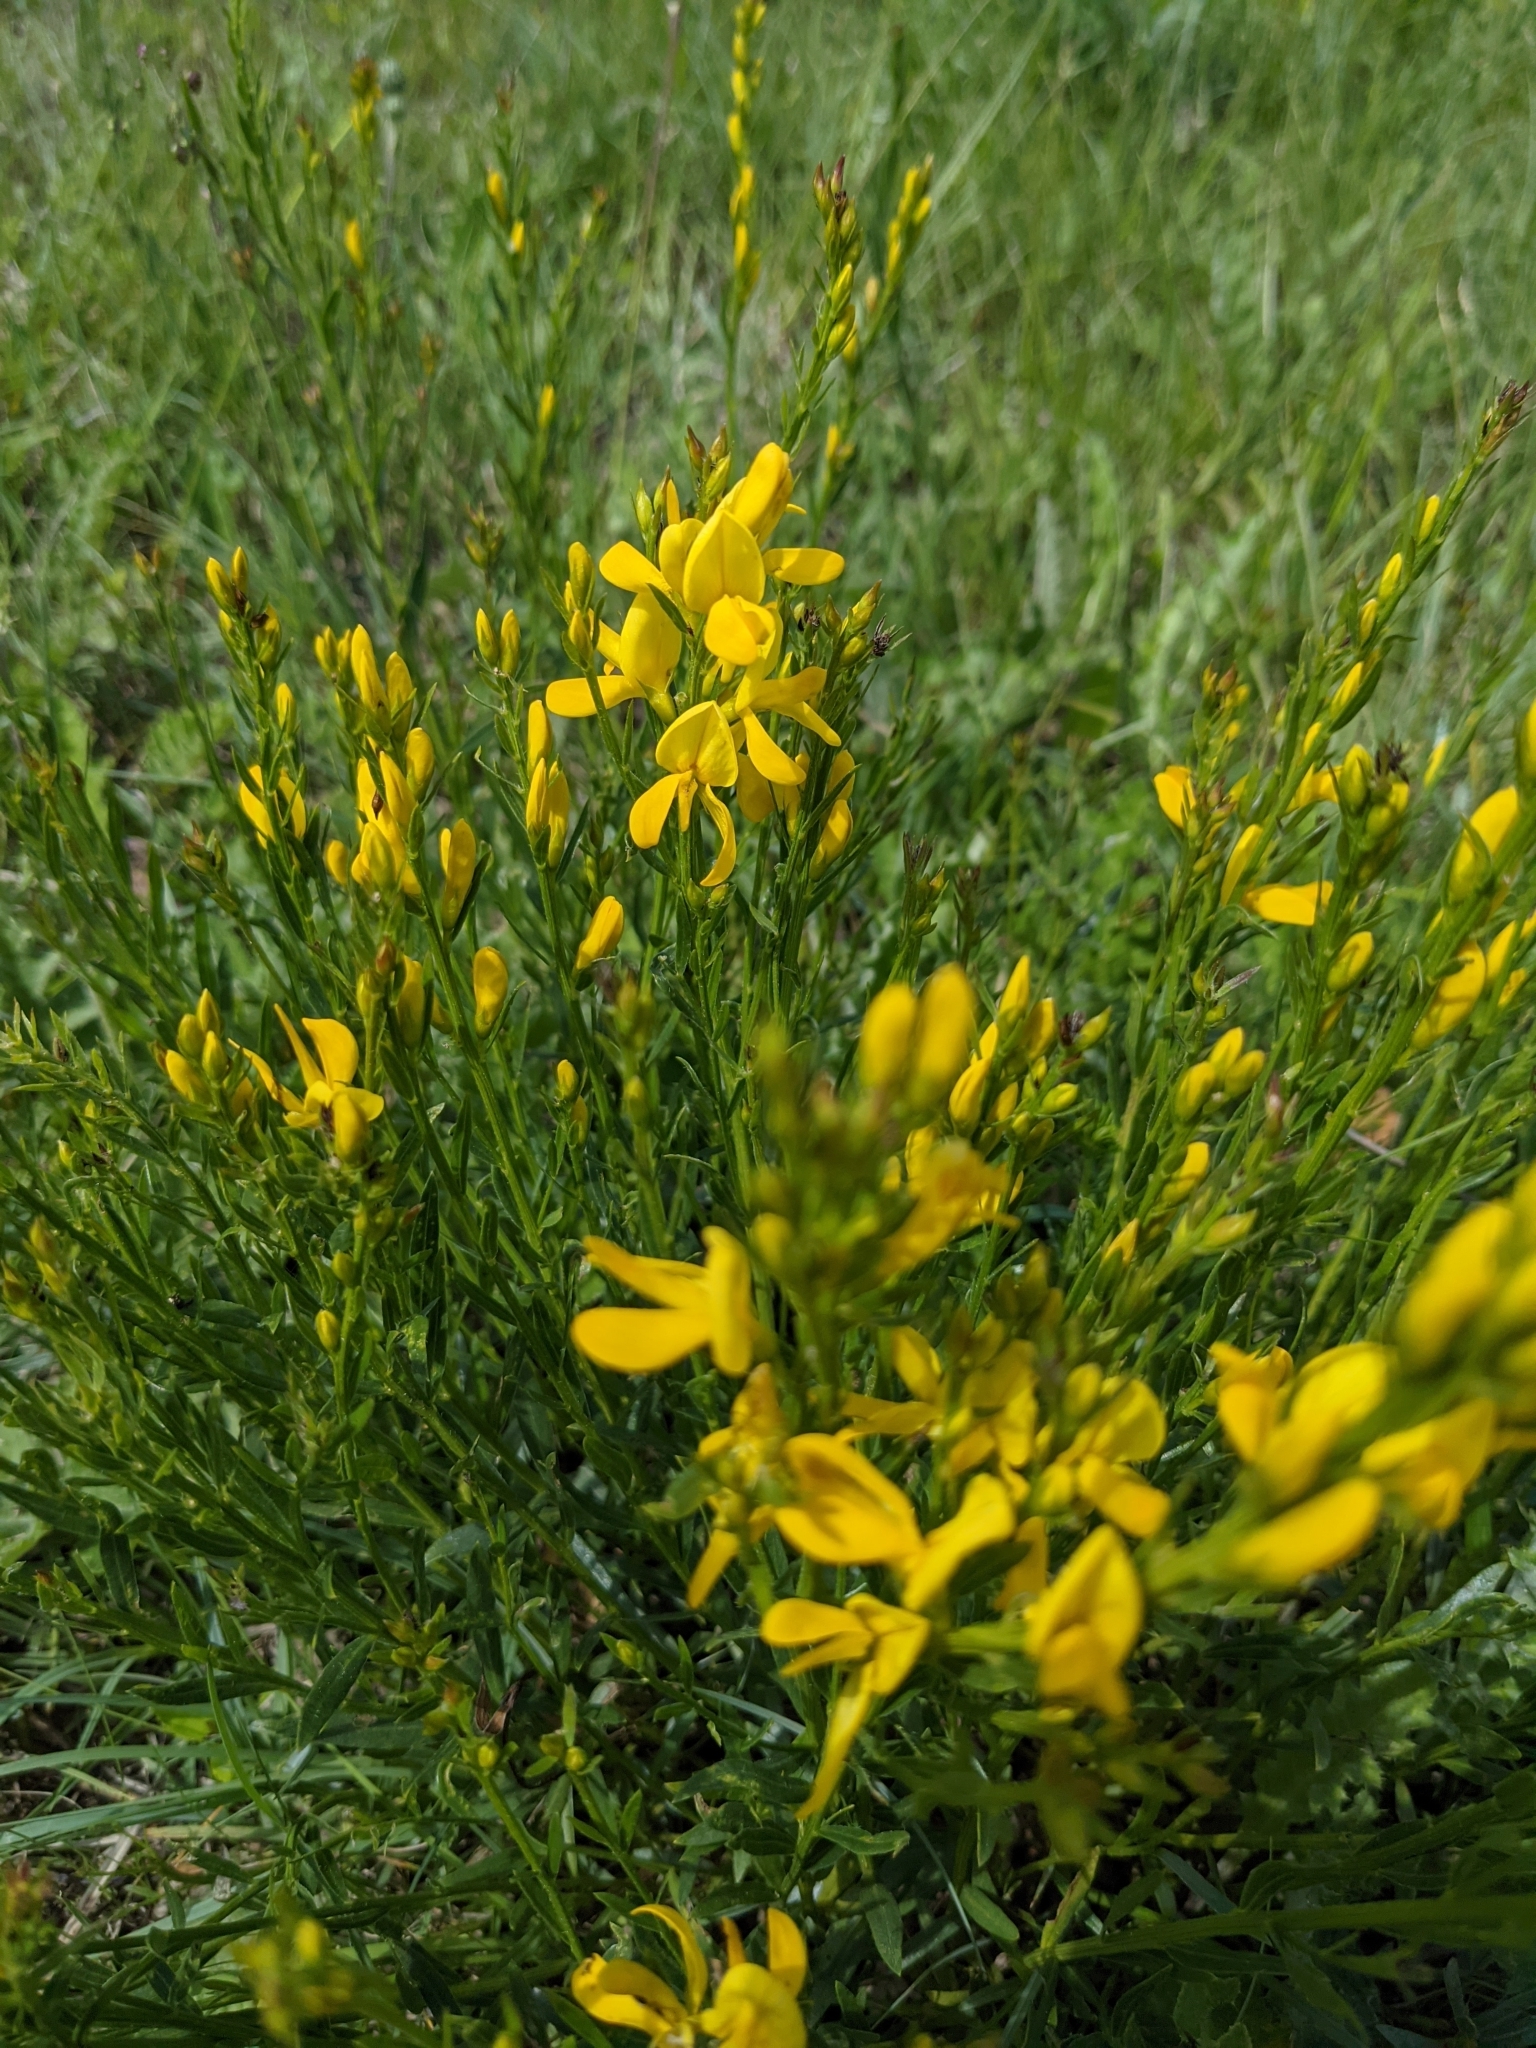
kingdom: Plantae
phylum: Tracheophyta
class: Magnoliopsida
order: Fabales
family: Fabaceae
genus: Genista
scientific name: Genista tinctoria
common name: Dyer's greenweed
